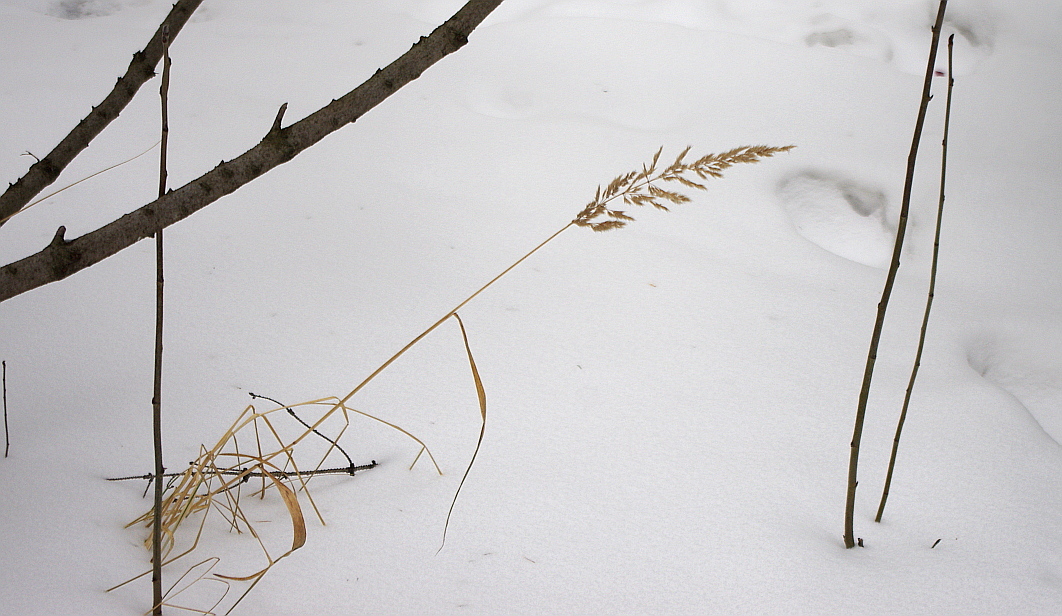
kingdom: Plantae
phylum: Tracheophyta
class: Liliopsida
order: Poales
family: Poaceae
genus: Calamagrostis
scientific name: Calamagrostis epigejos
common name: Wood small-reed
